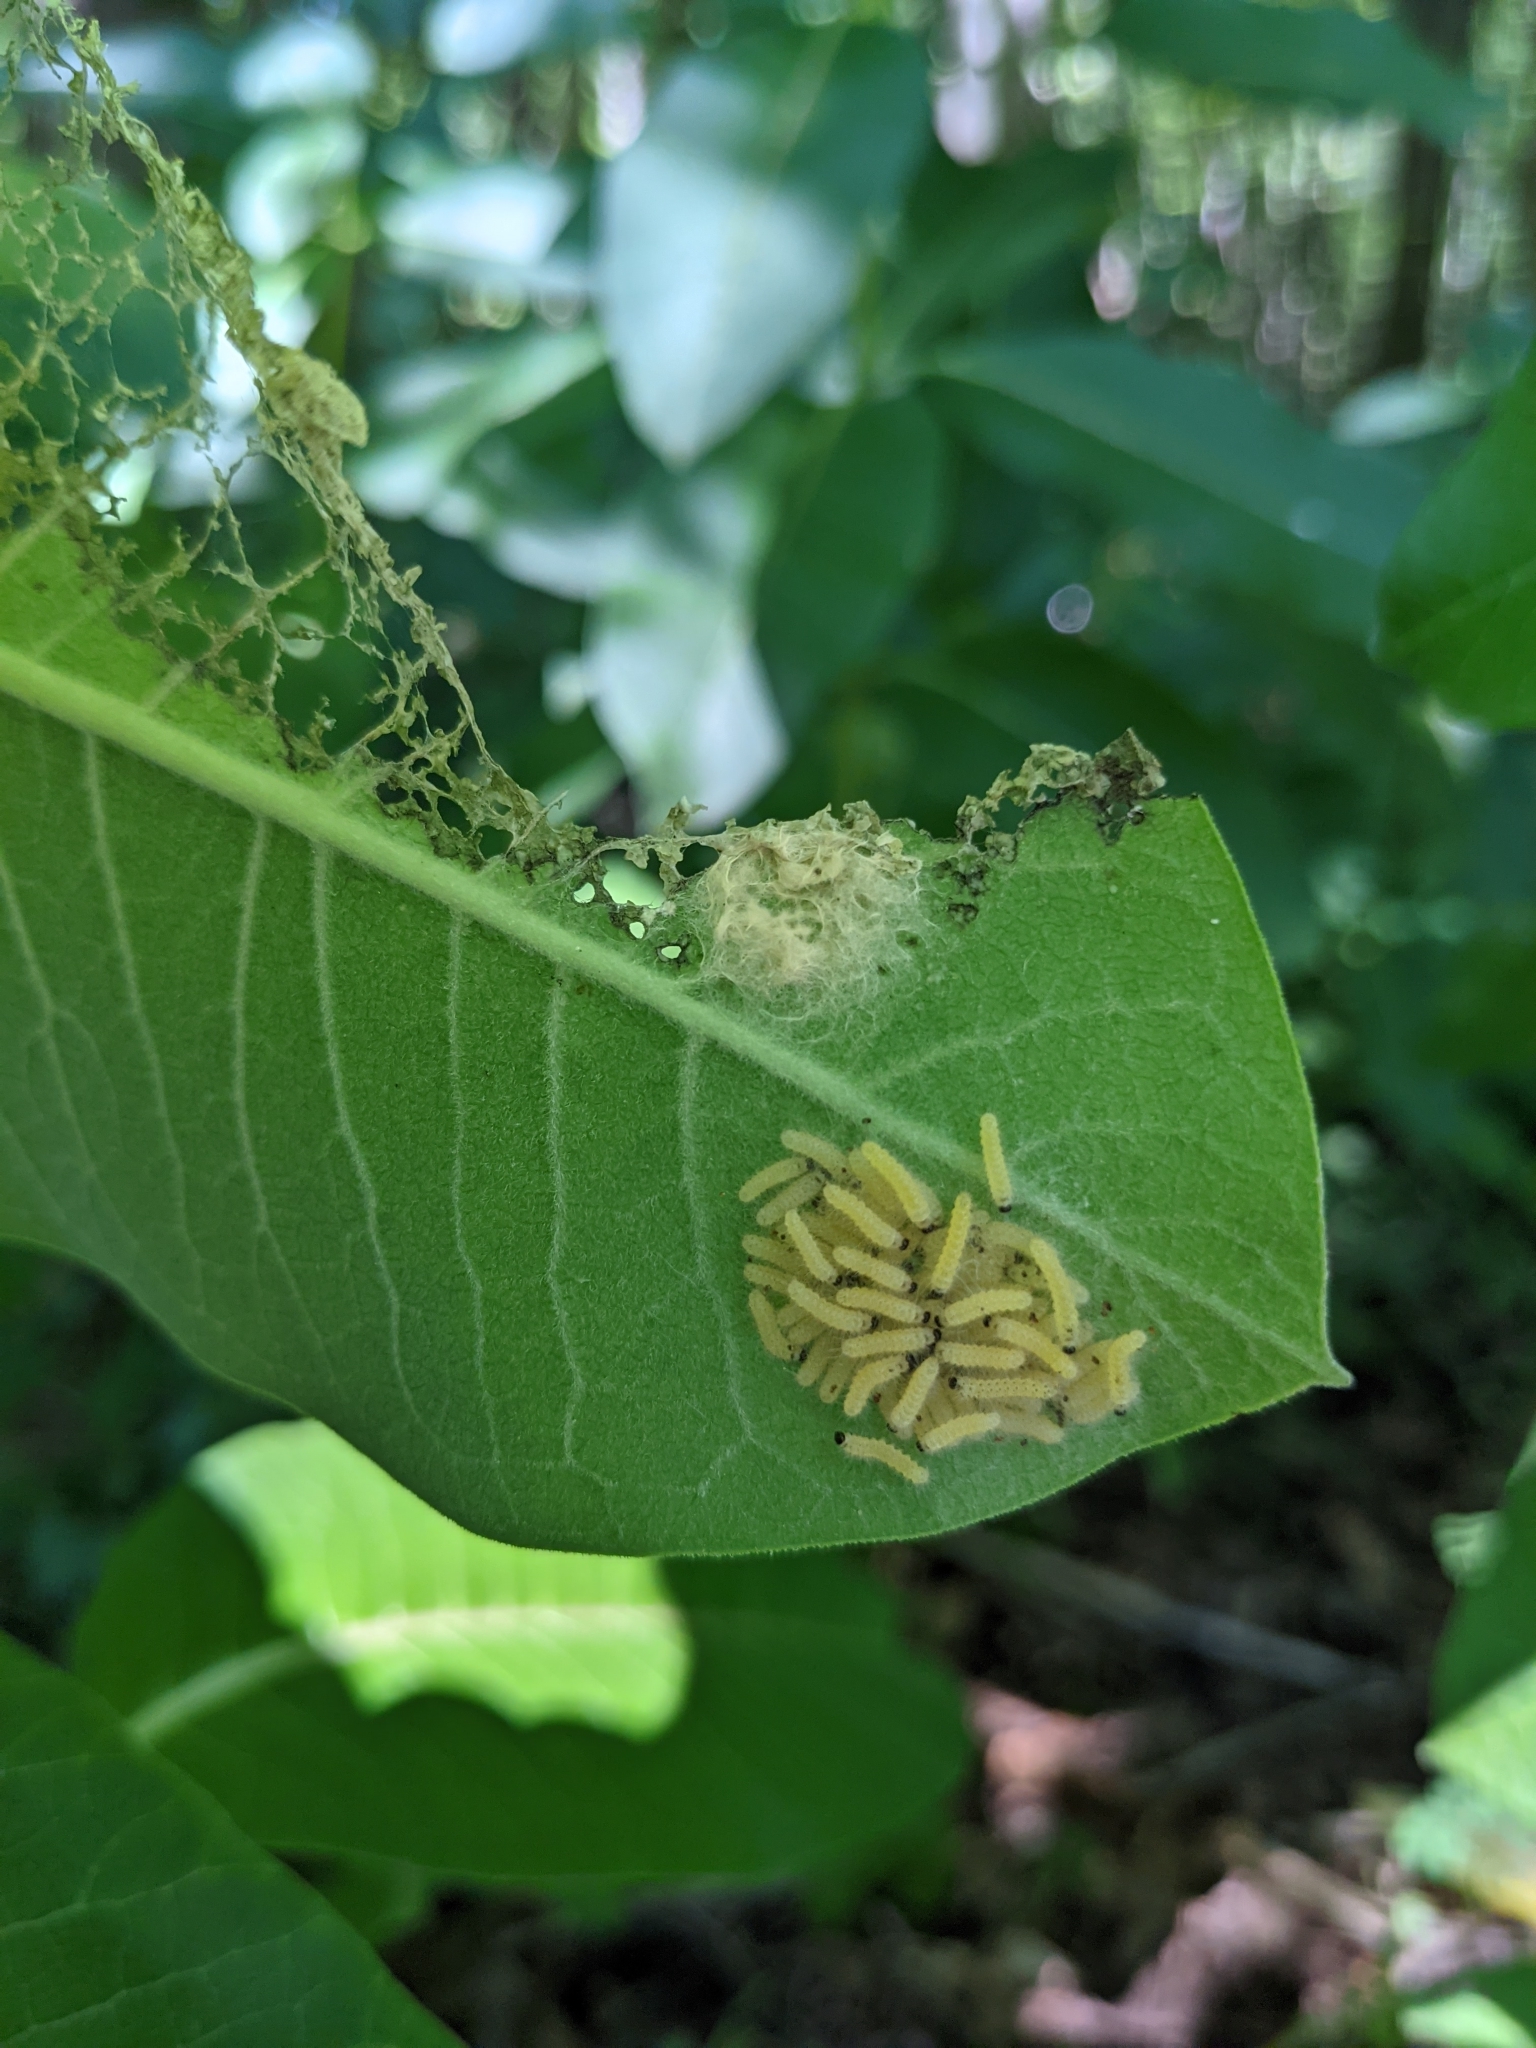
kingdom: Animalia
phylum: Arthropoda
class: Insecta
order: Lepidoptera
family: Erebidae
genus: Euchaetes
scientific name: Euchaetes egle
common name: Milkweed tussock moth
